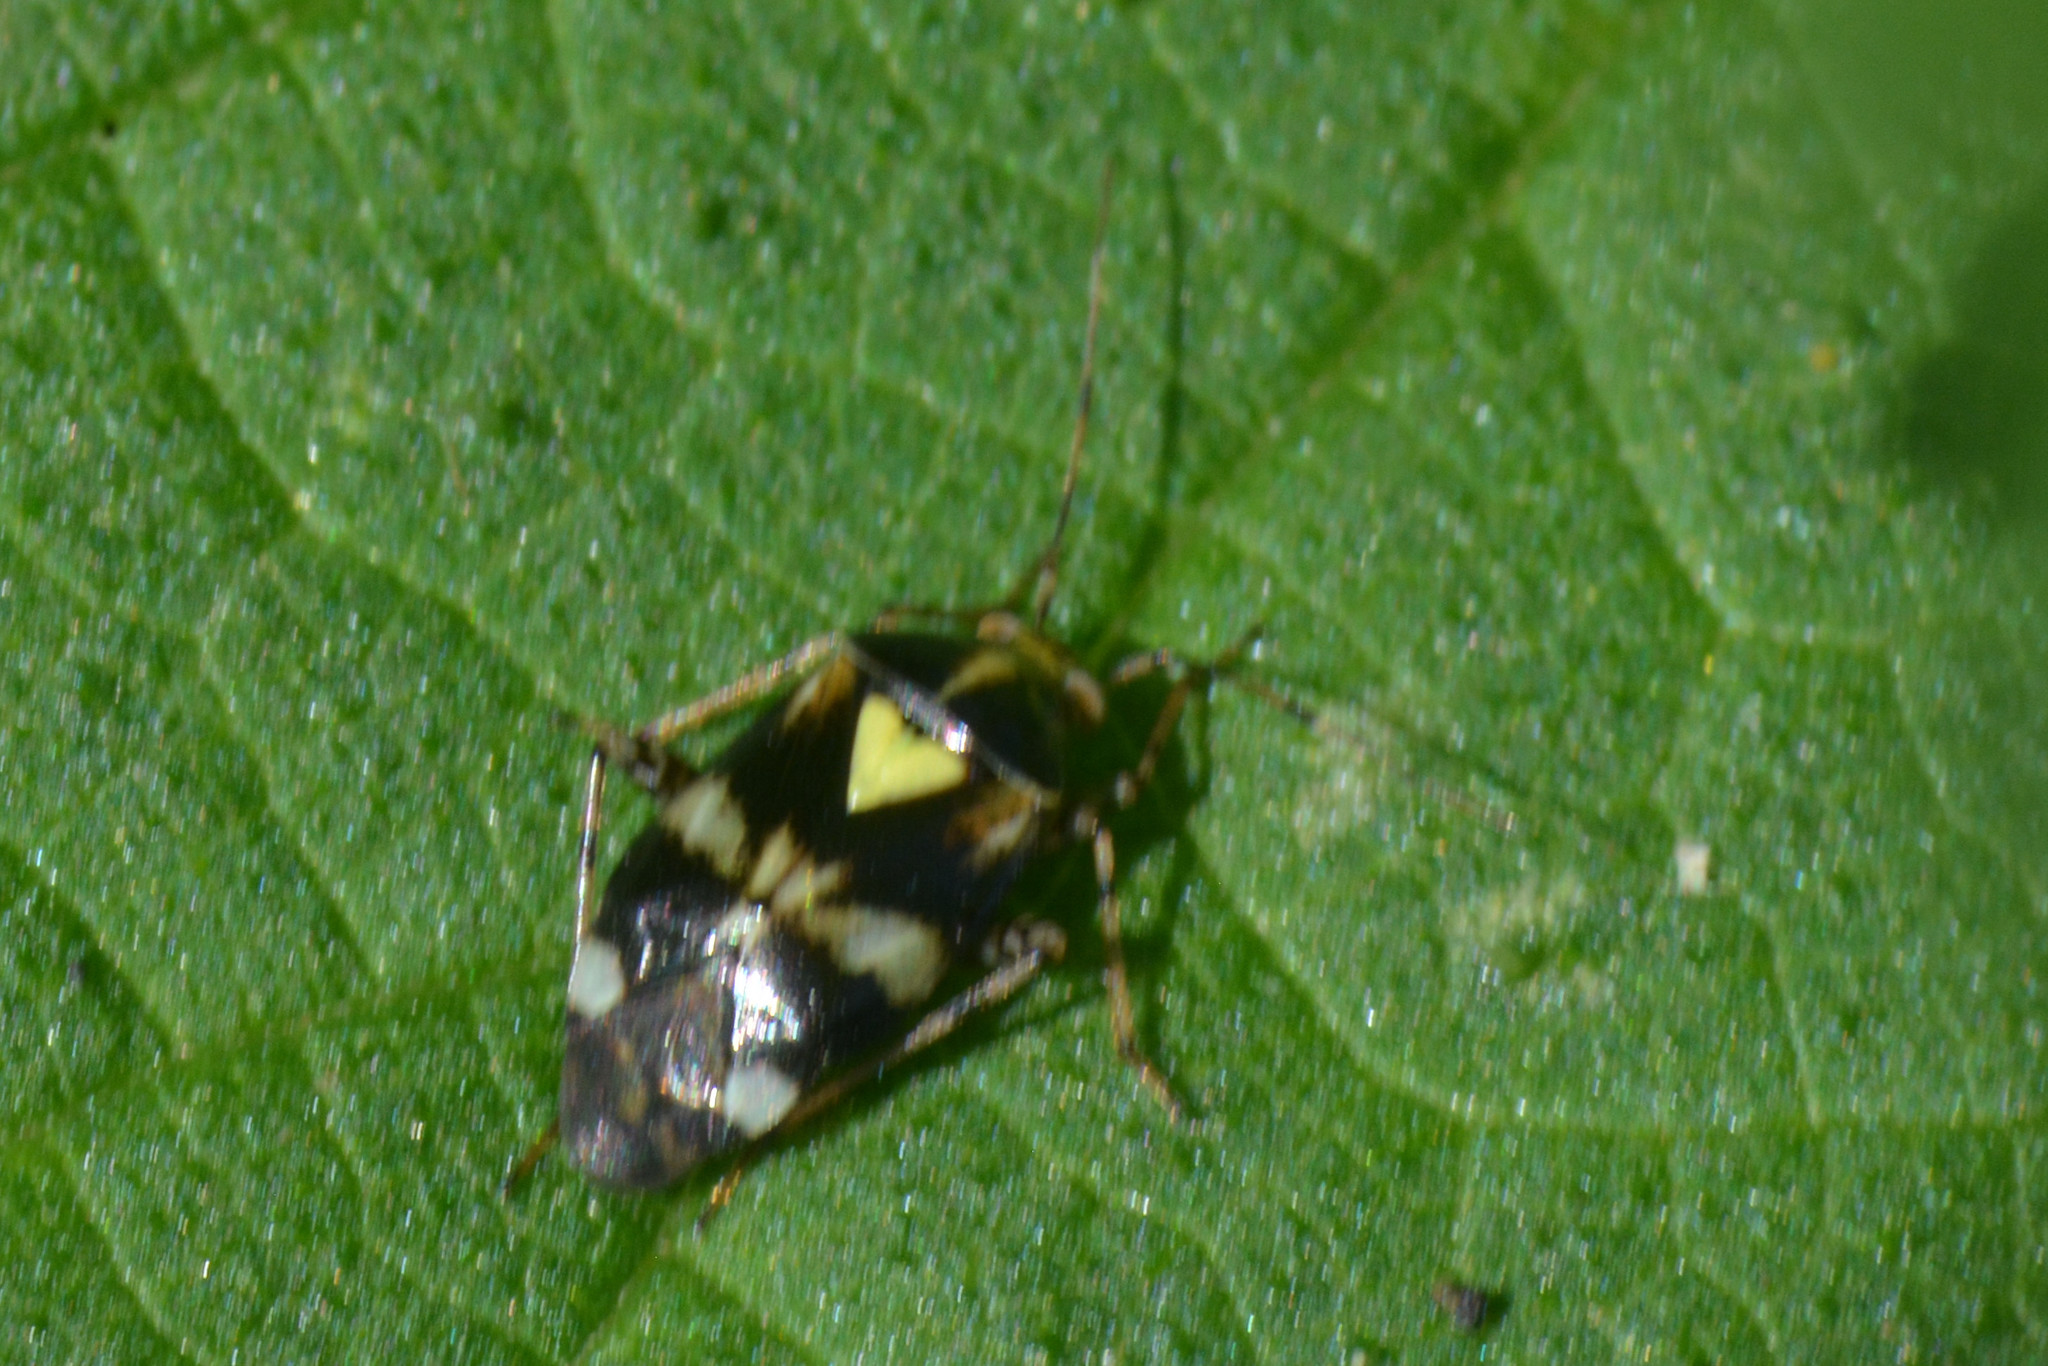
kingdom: Animalia
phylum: Arthropoda
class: Insecta
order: Hemiptera
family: Miridae
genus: Liocoris
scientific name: Liocoris tripustulatus
